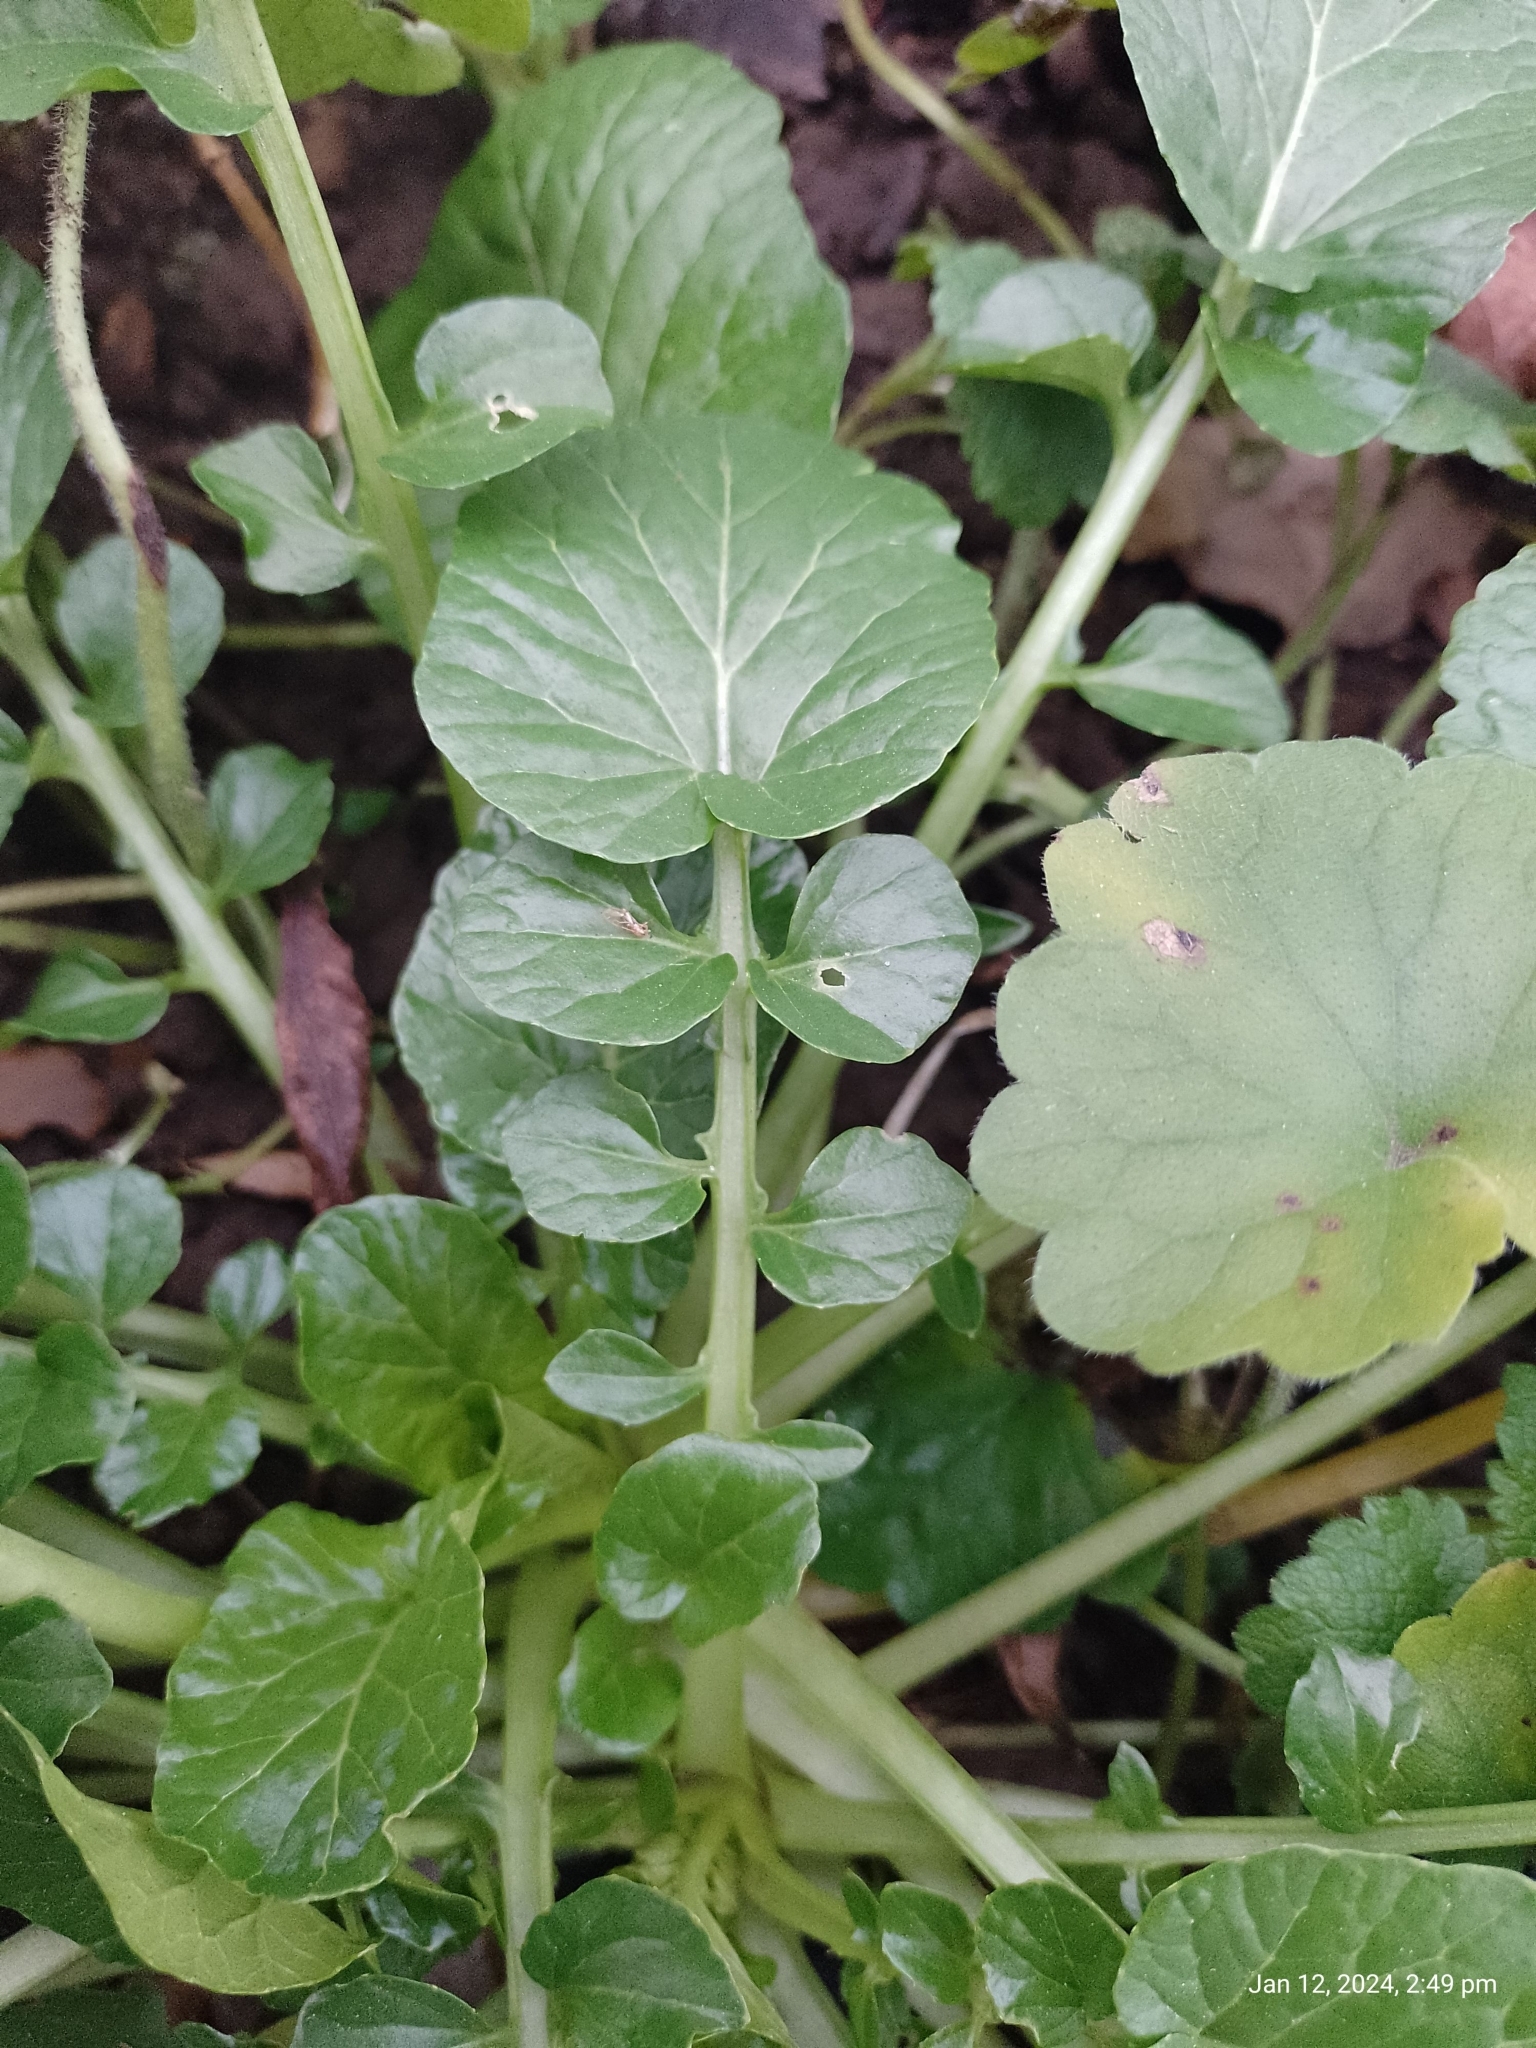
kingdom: Plantae
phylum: Tracheophyta
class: Magnoliopsida
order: Brassicales
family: Brassicaceae
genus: Barbarea
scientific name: Barbarea vulgaris
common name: Cressy-greens
